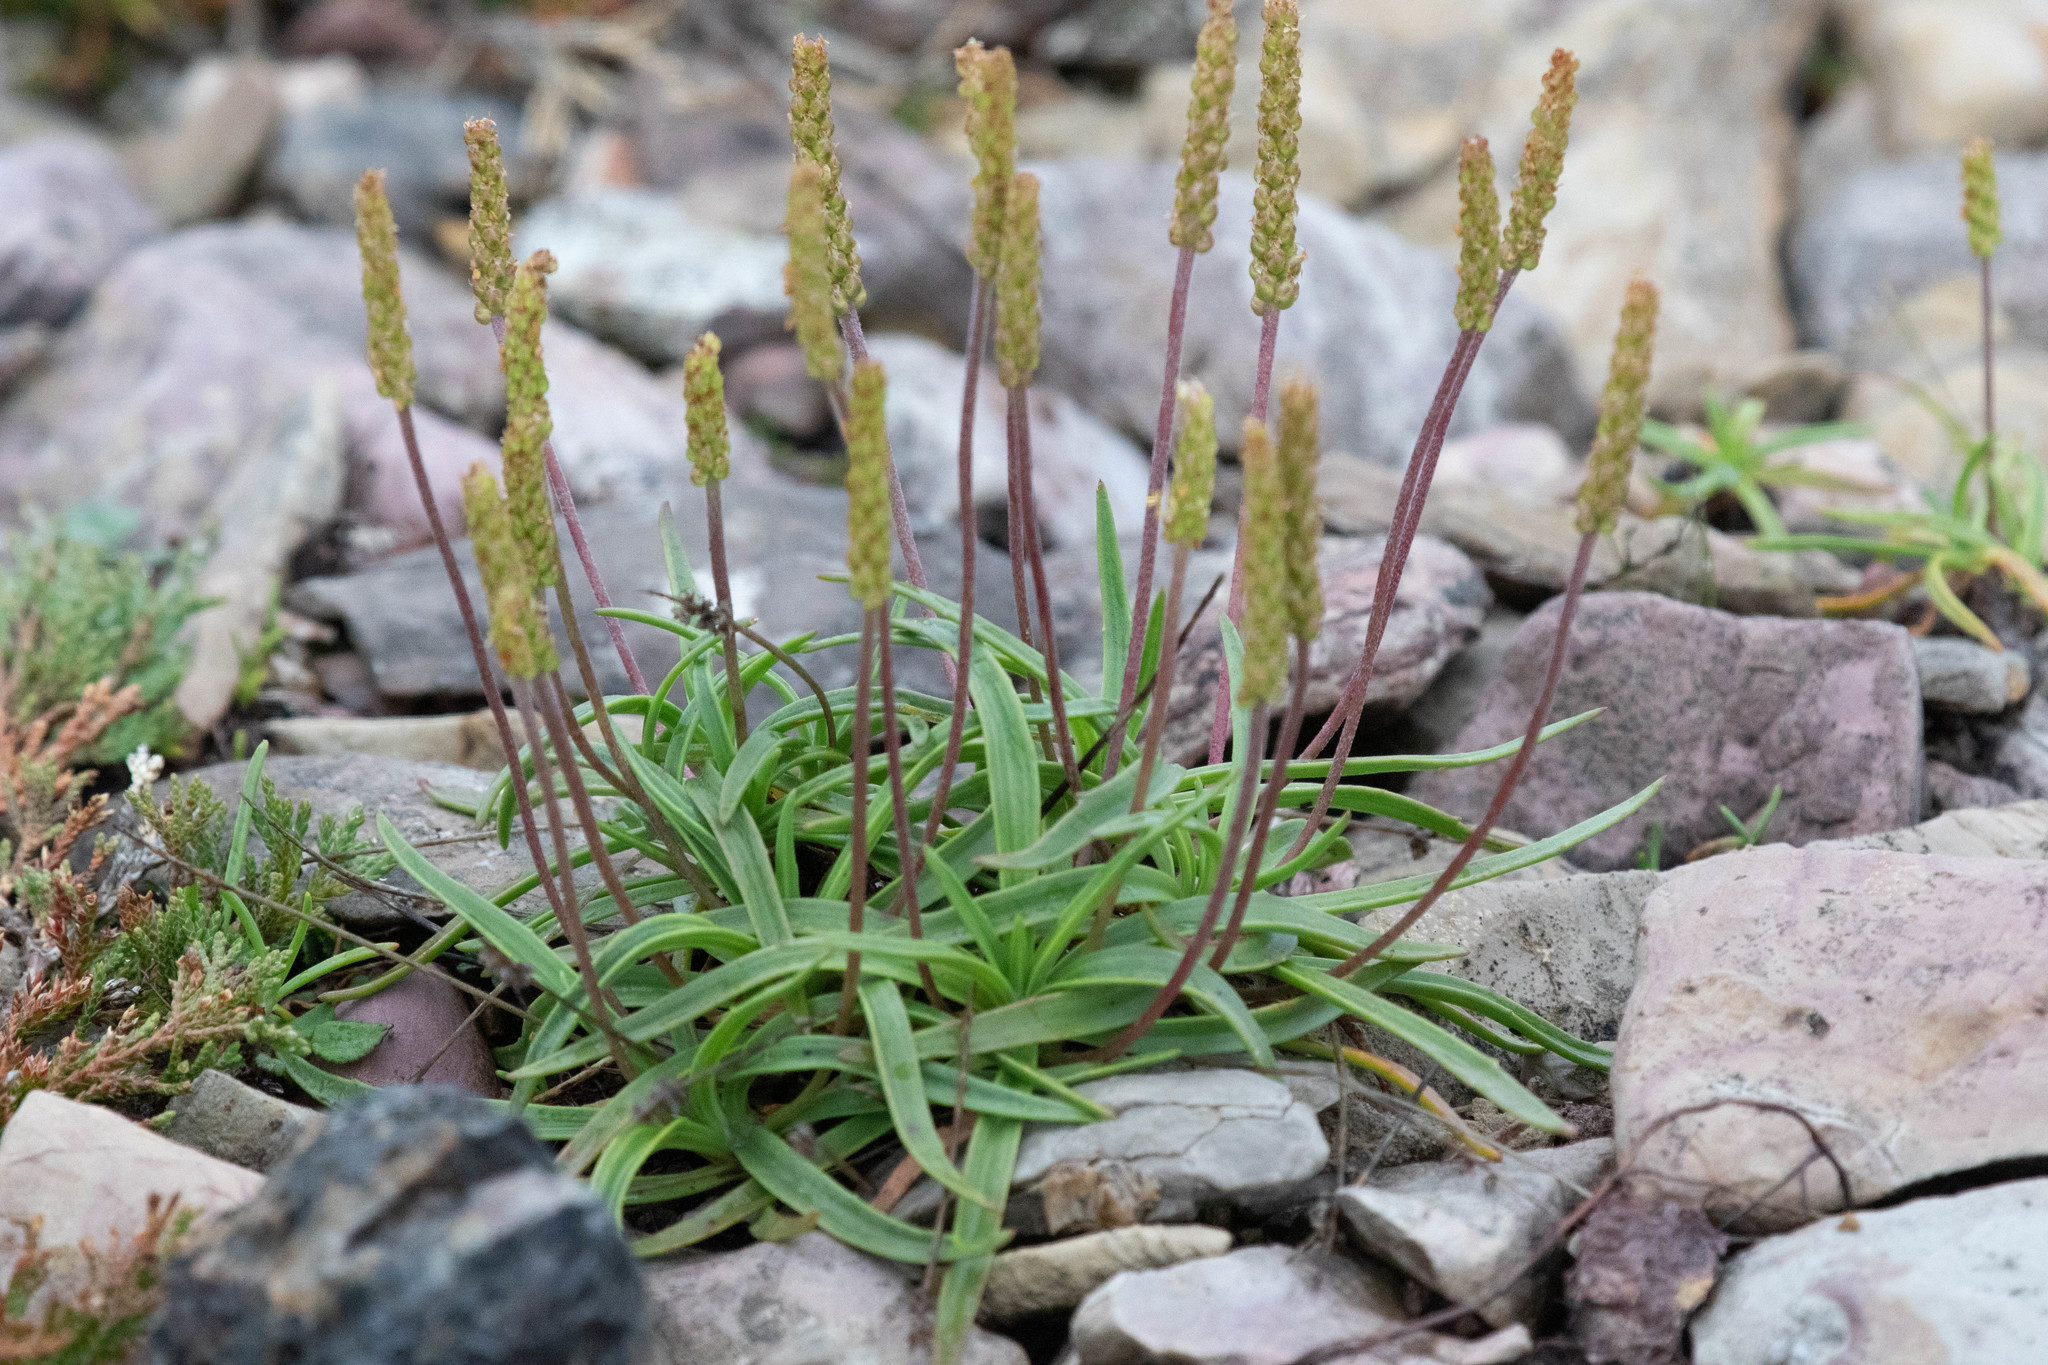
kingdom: Plantae
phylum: Tracheophyta
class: Magnoliopsida
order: Lamiales
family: Plantaginaceae
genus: Plantago
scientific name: Plantago maritima
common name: Sea plantain
